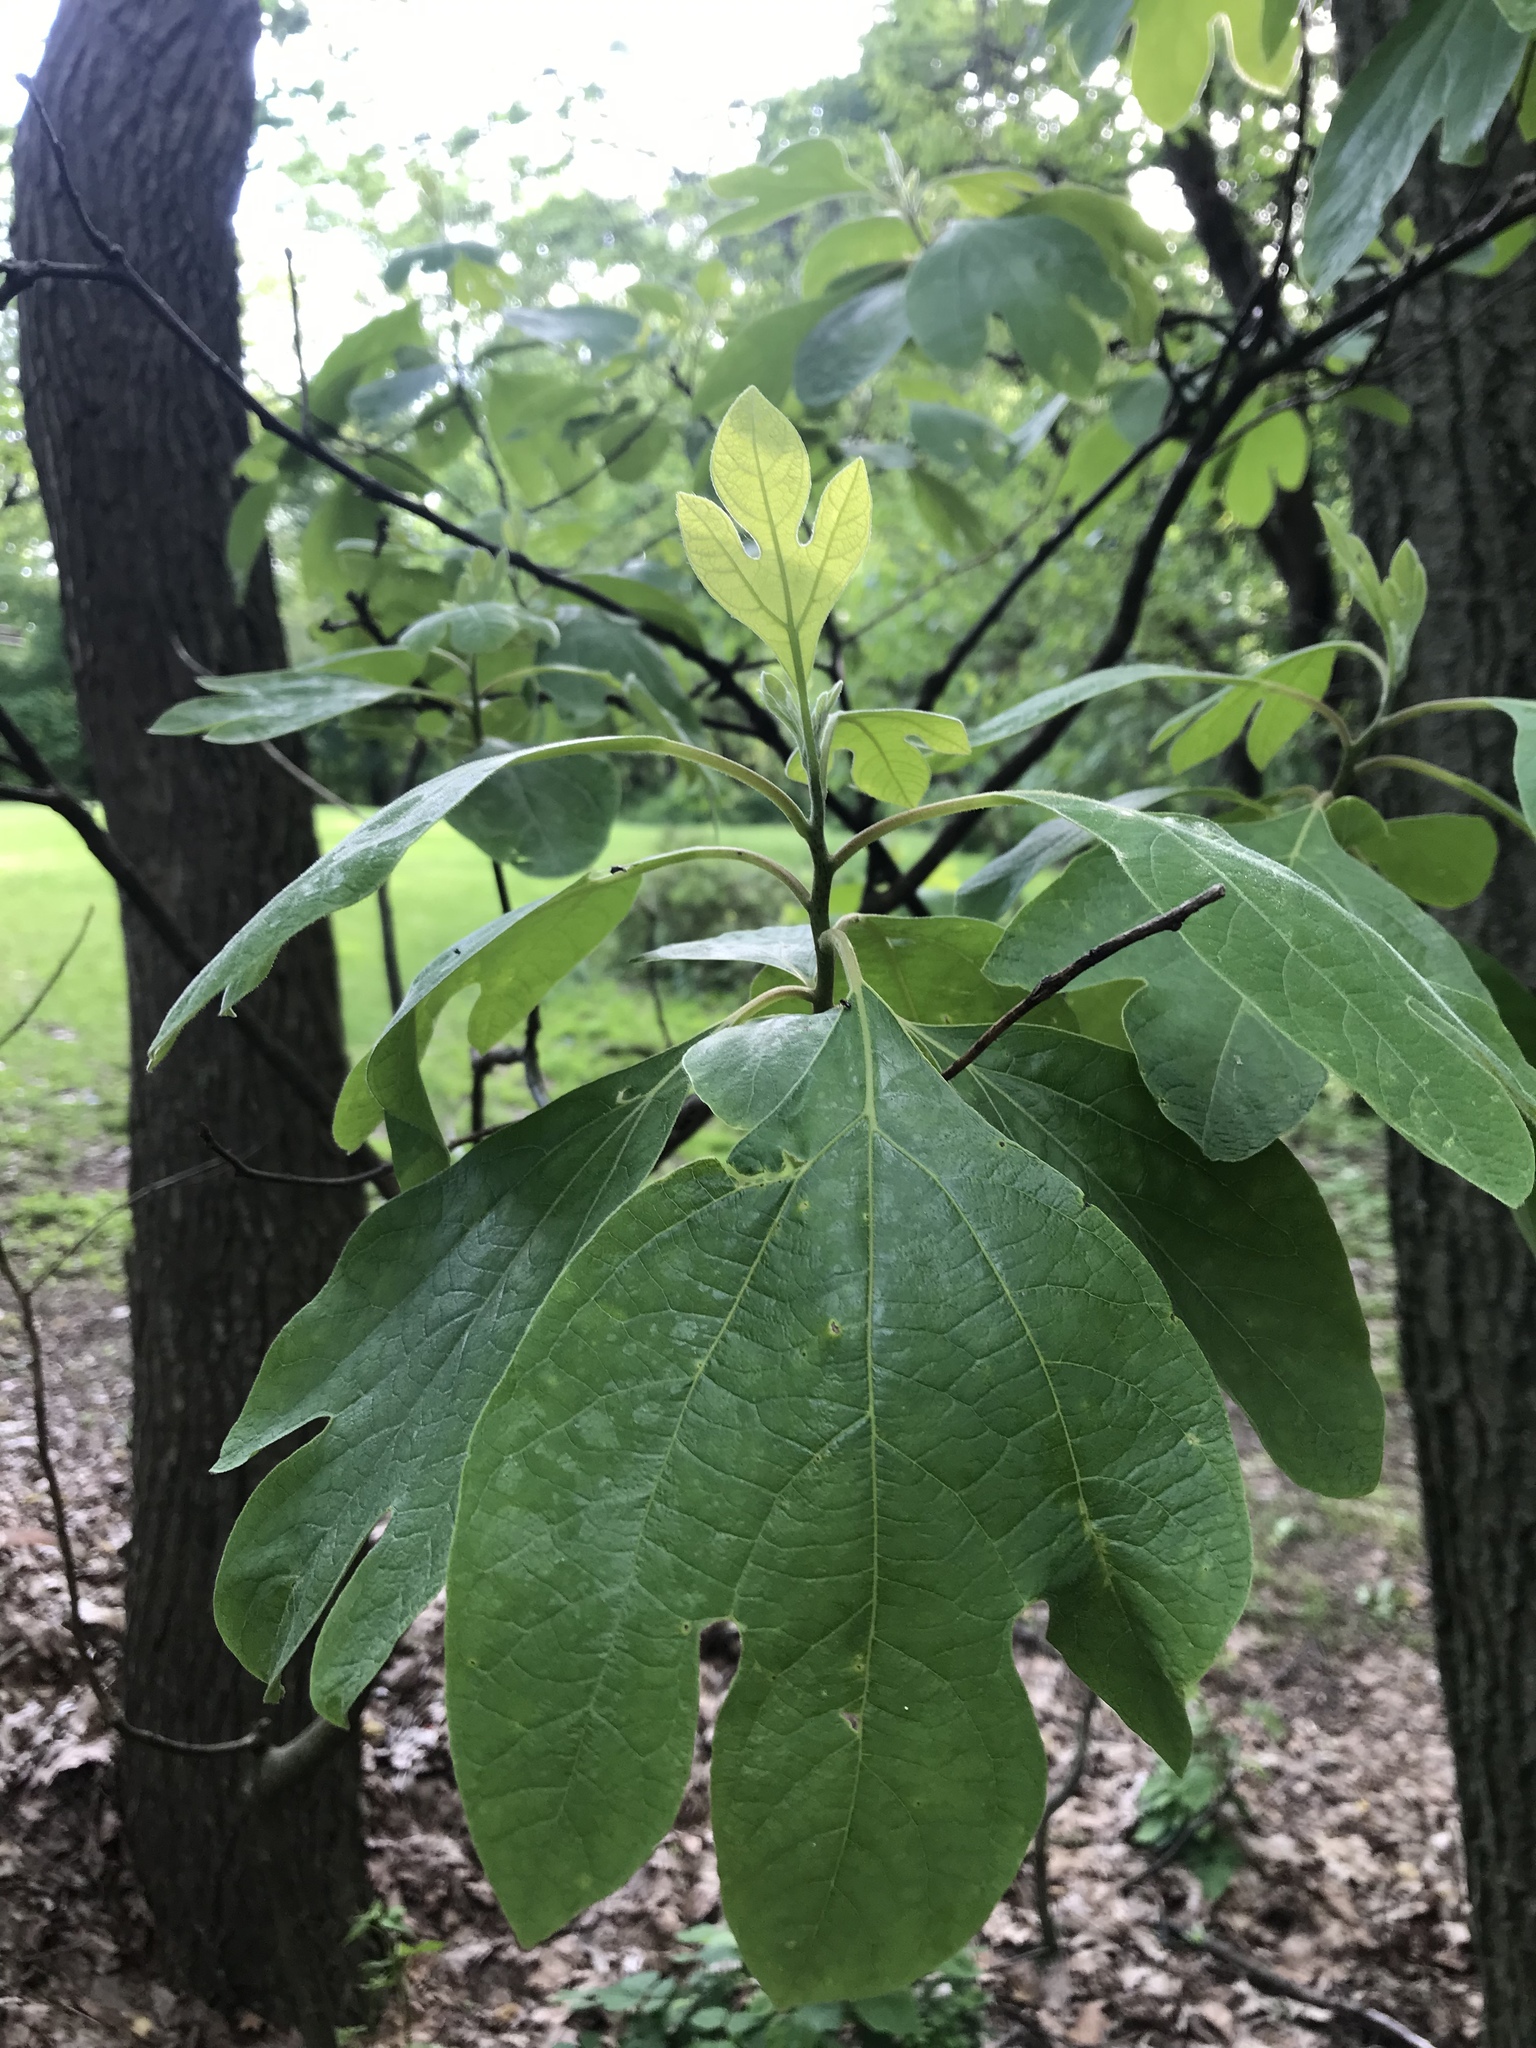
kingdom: Plantae
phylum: Tracheophyta
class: Magnoliopsida
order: Laurales
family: Lauraceae
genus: Sassafras
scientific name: Sassafras albidum
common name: Sassafras
